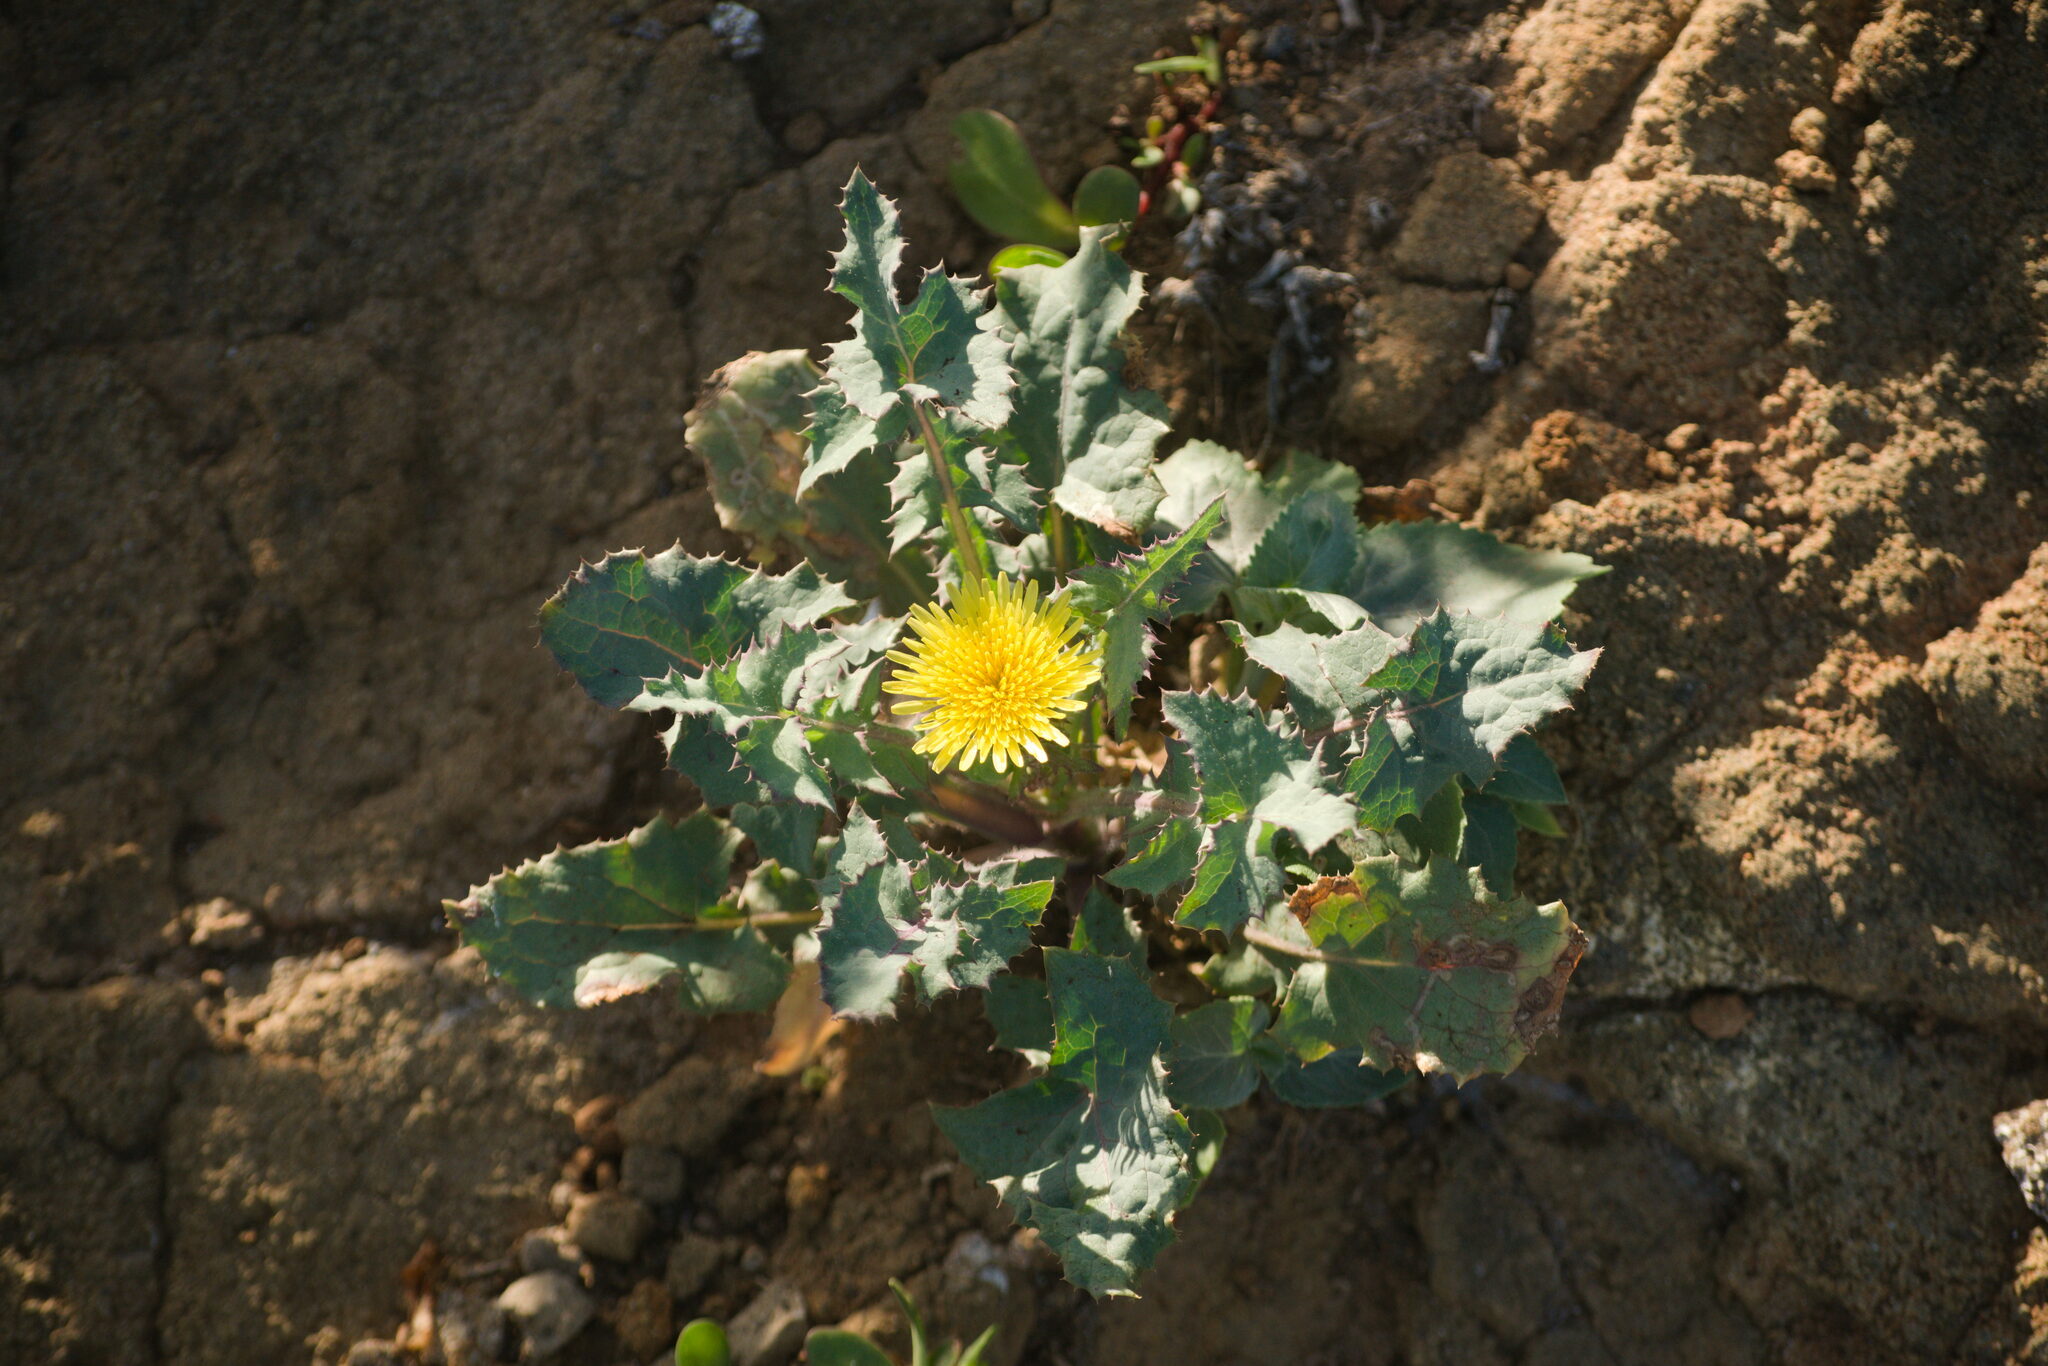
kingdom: Plantae
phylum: Tracheophyta
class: Magnoliopsida
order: Asterales
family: Asteraceae
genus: Sonchus
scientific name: Sonchus oleraceus
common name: Common sowthistle
